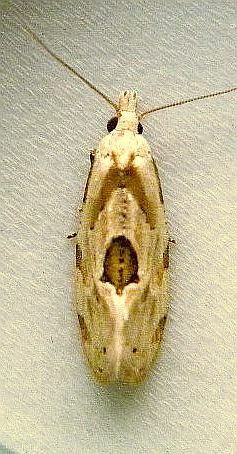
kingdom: Animalia
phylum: Arthropoda
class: Insecta
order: Lepidoptera
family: Tortricidae
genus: Aethes
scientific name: Aethes angustana
